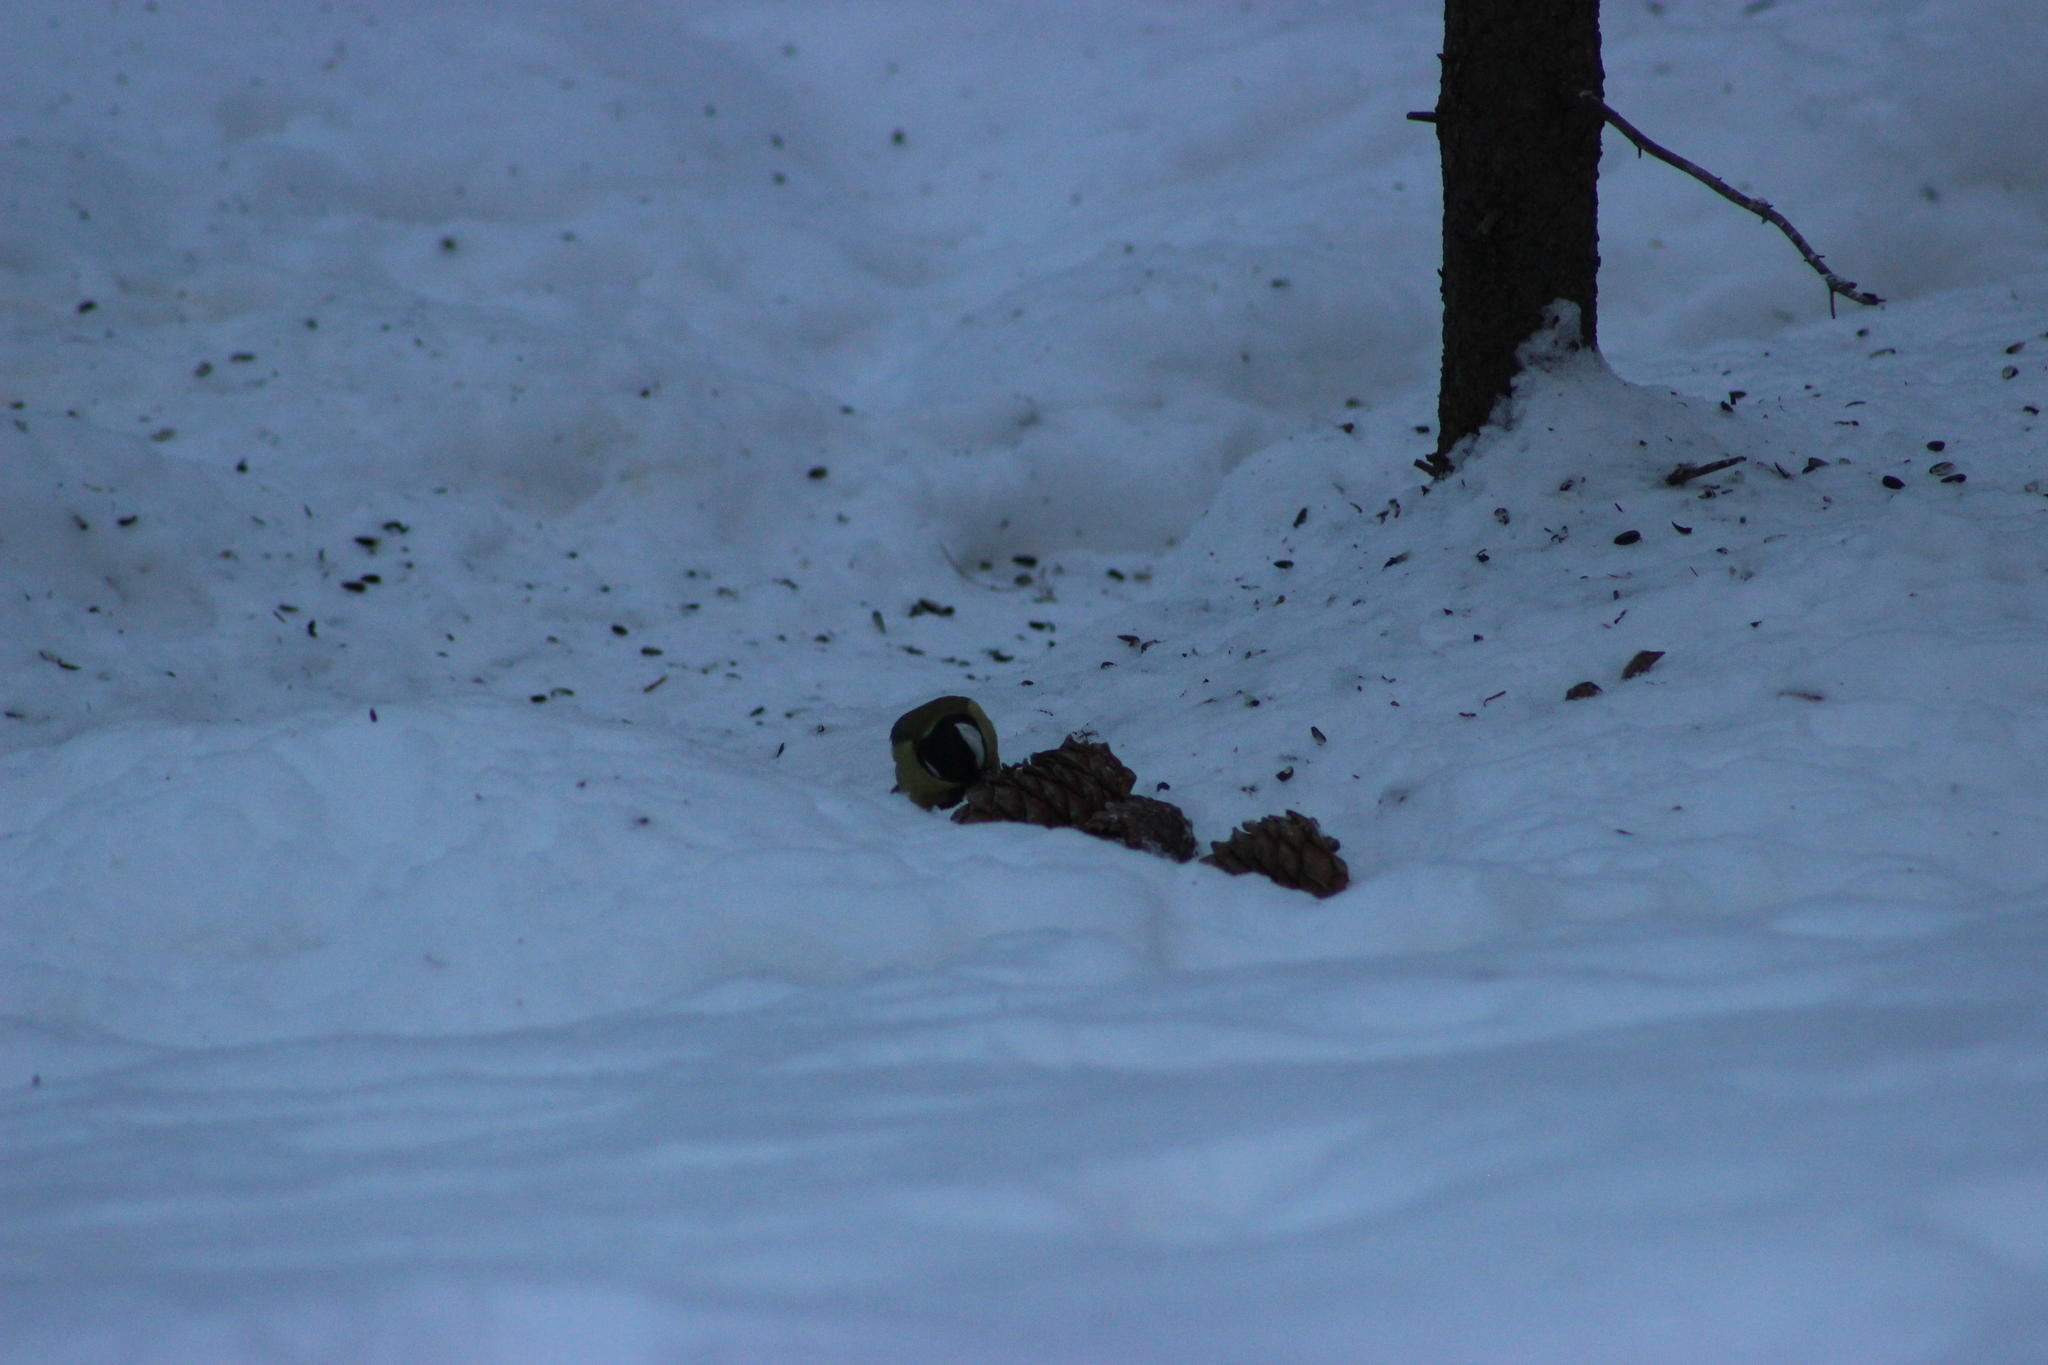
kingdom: Animalia
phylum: Chordata
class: Aves
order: Passeriformes
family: Paridae
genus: Parus
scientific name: Parus major
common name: Great tit
